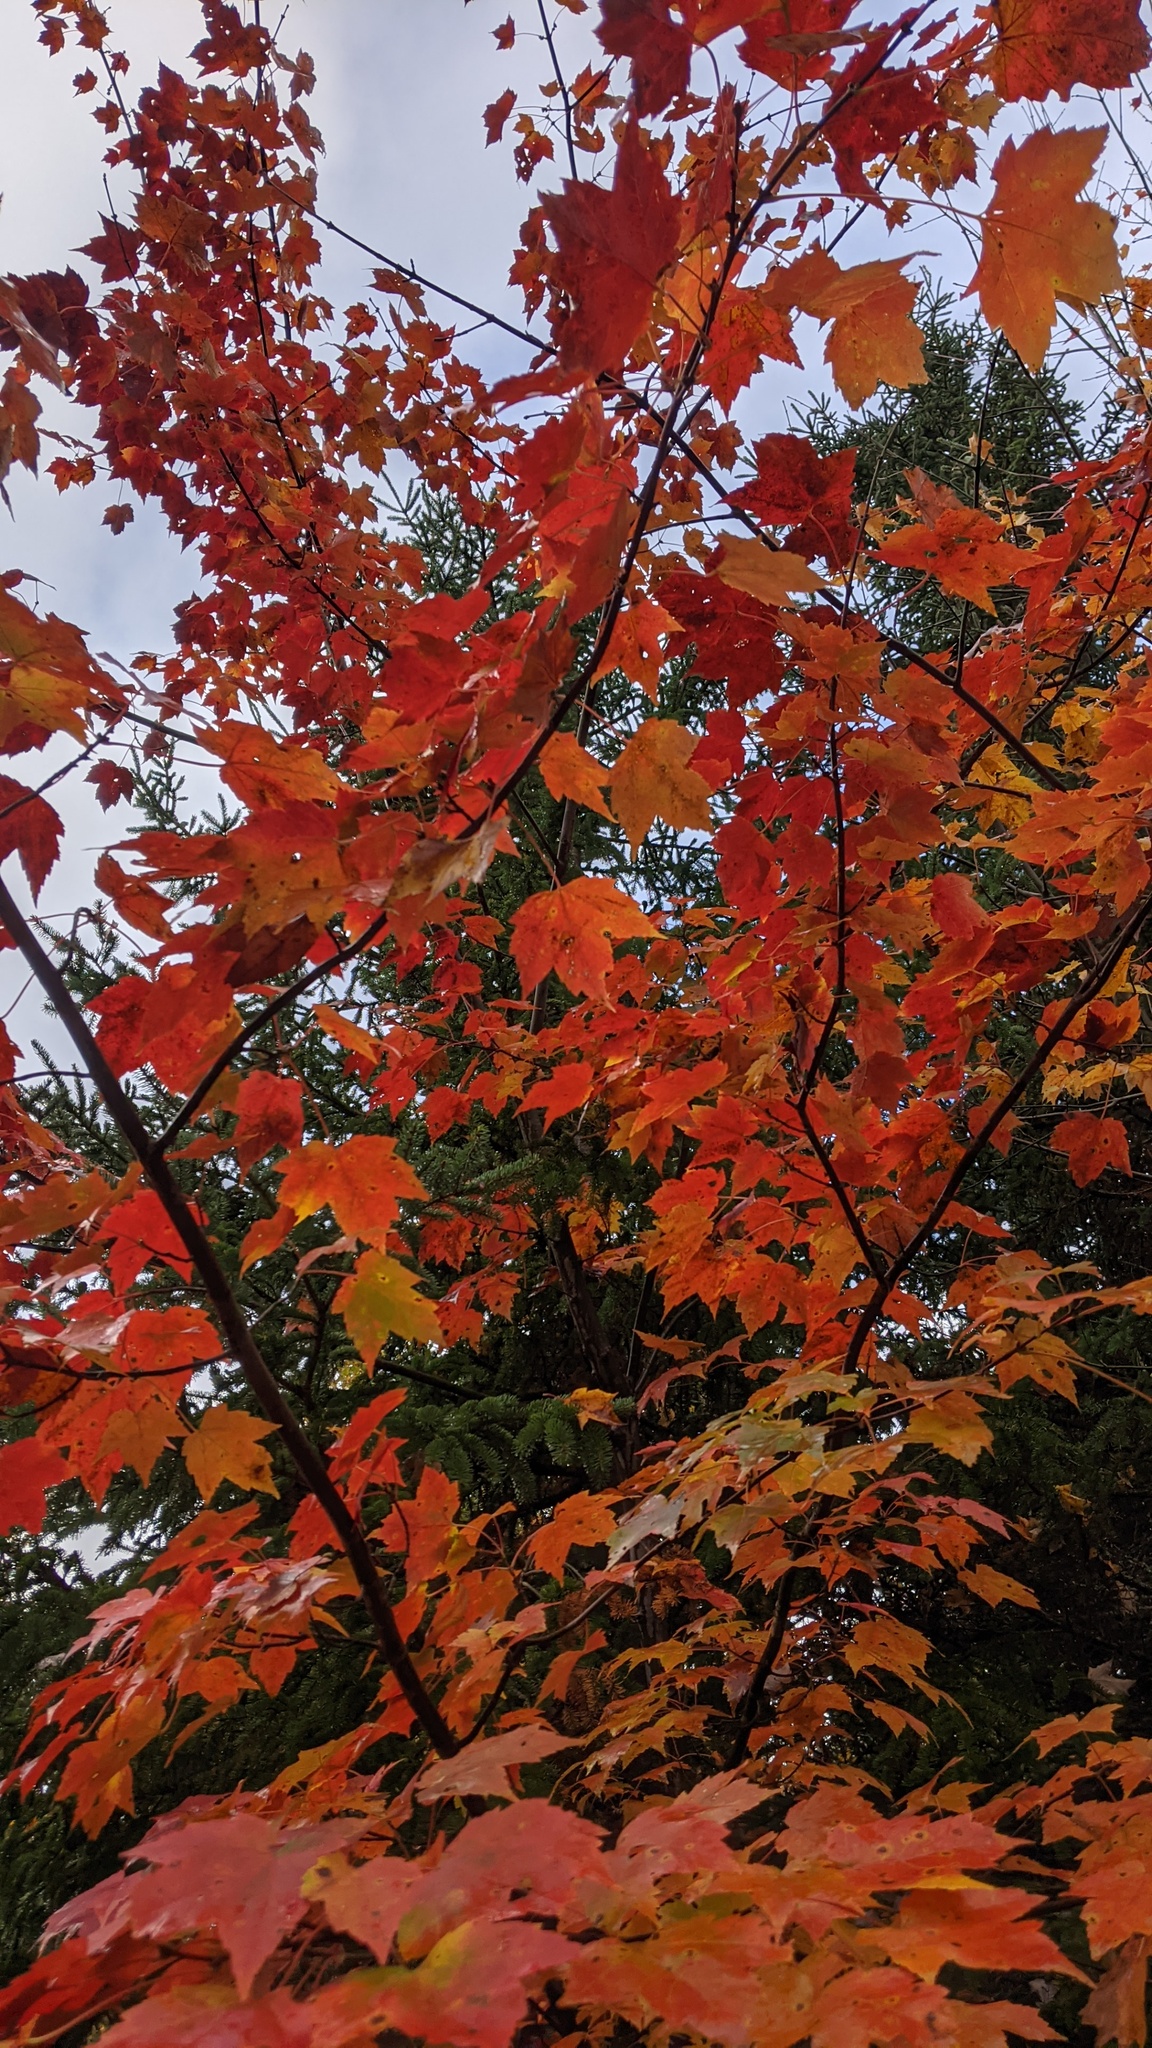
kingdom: Plantae
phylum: Tracheophyta
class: Magnoliopsida
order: Sapindales
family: Sapindaceae
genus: Acer
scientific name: Acer rubrum
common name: Red maple
